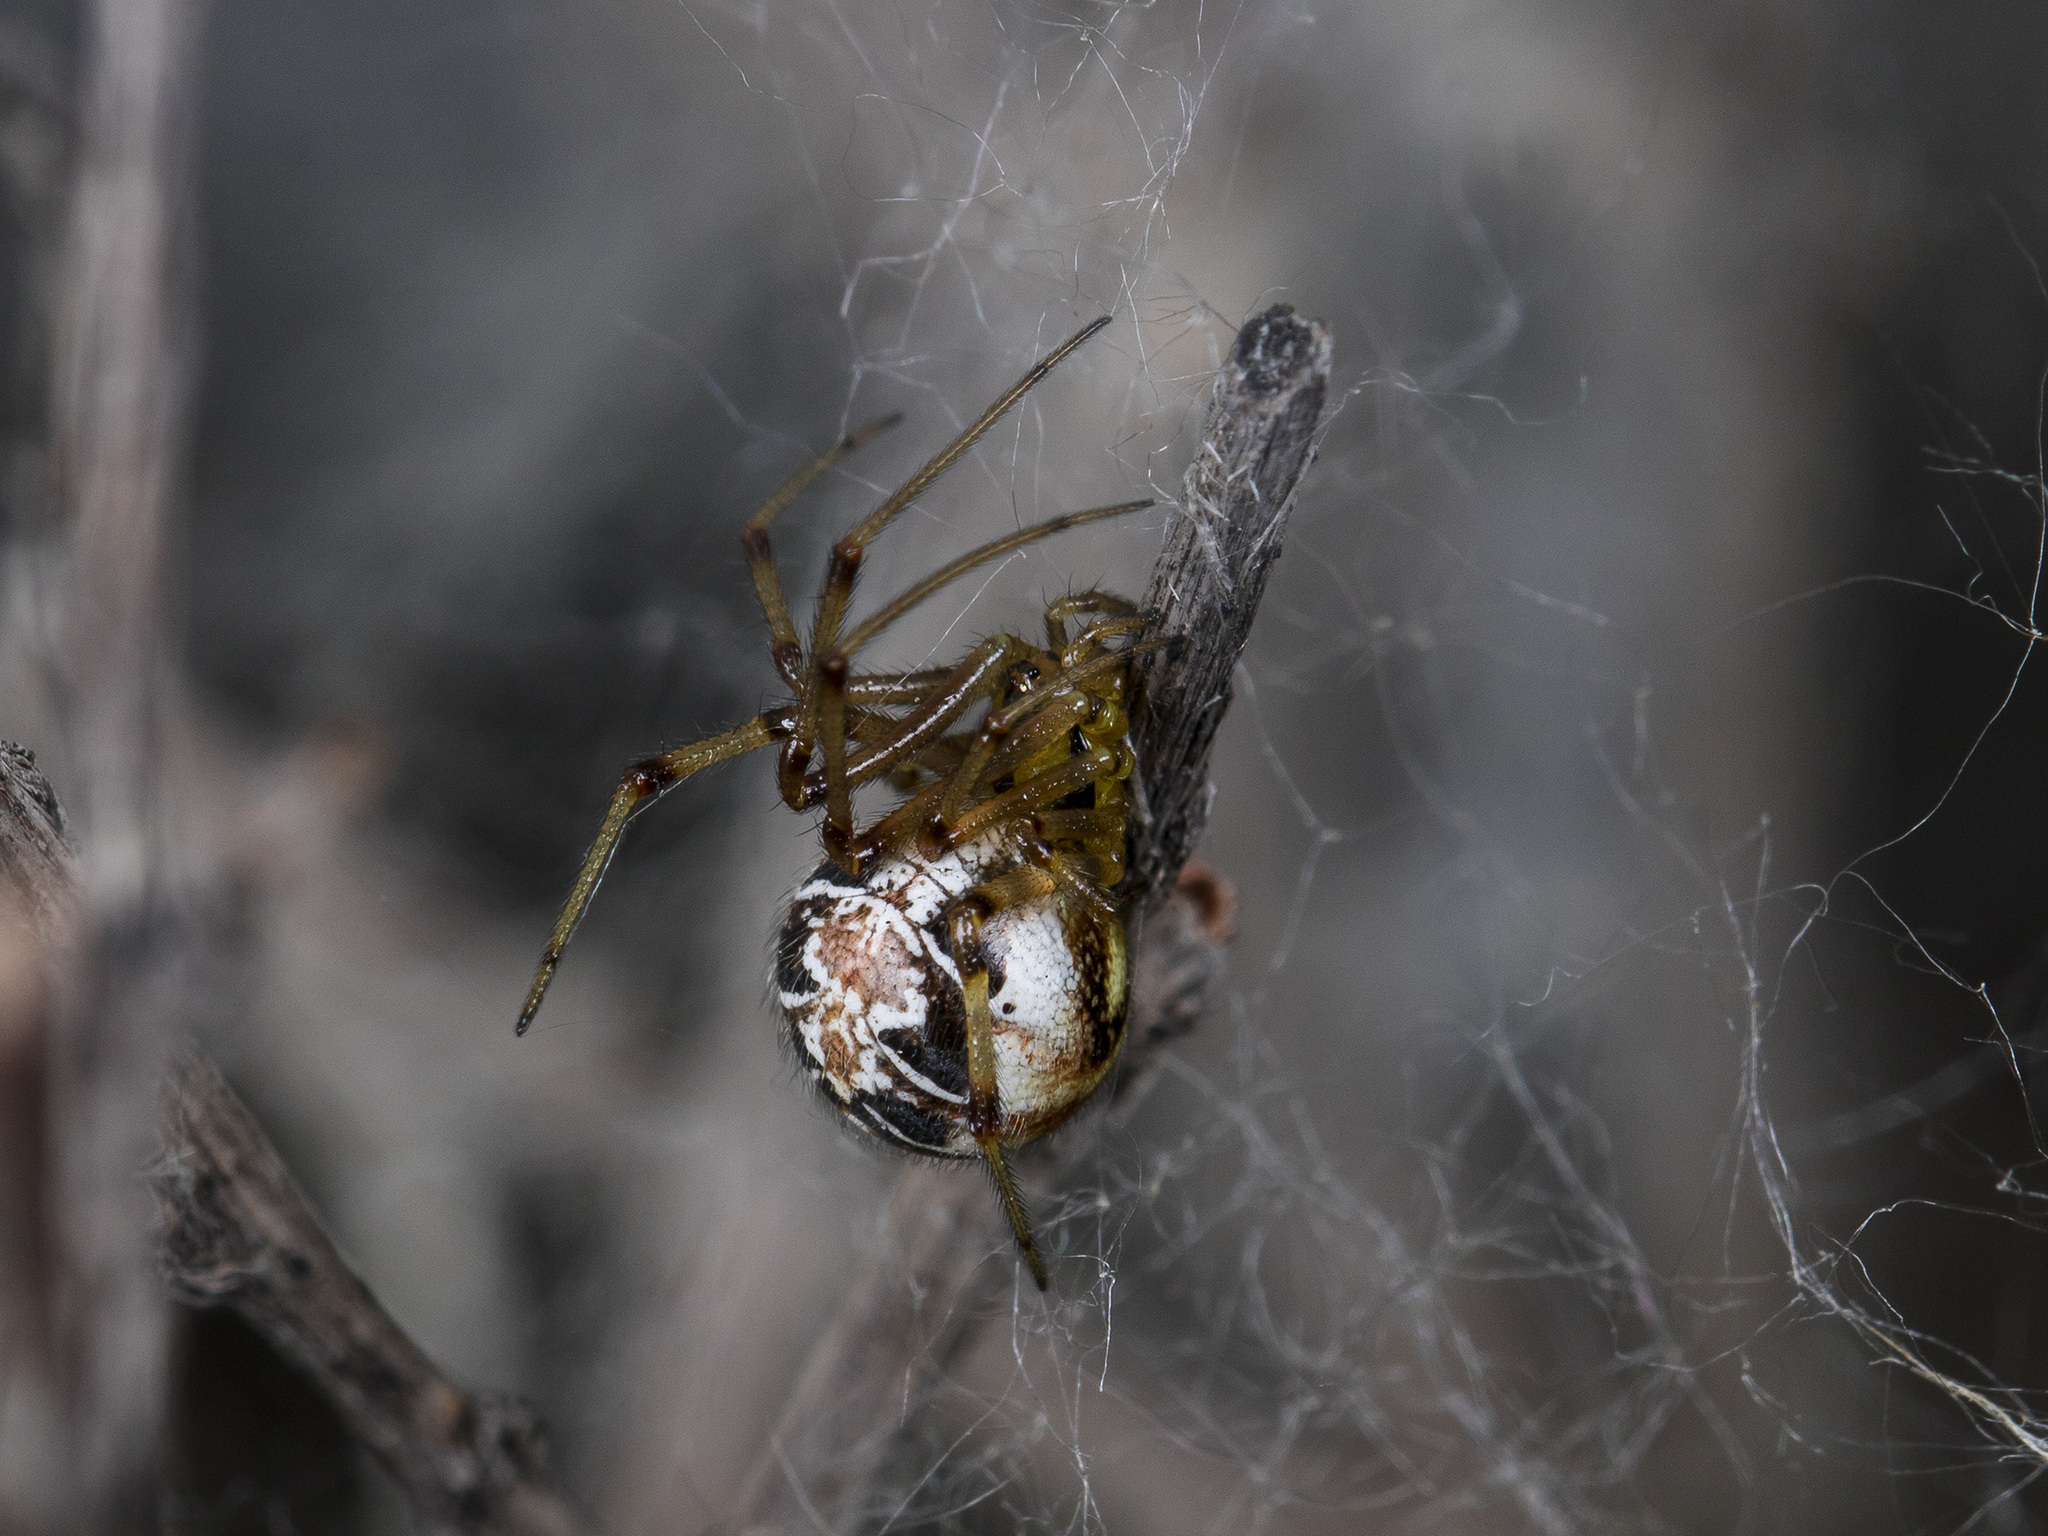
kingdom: Animalia
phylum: Arthropoda
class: Arachnida
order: Araneae
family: Theridiidae
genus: Phylloneta
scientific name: Phylloneta impressa
